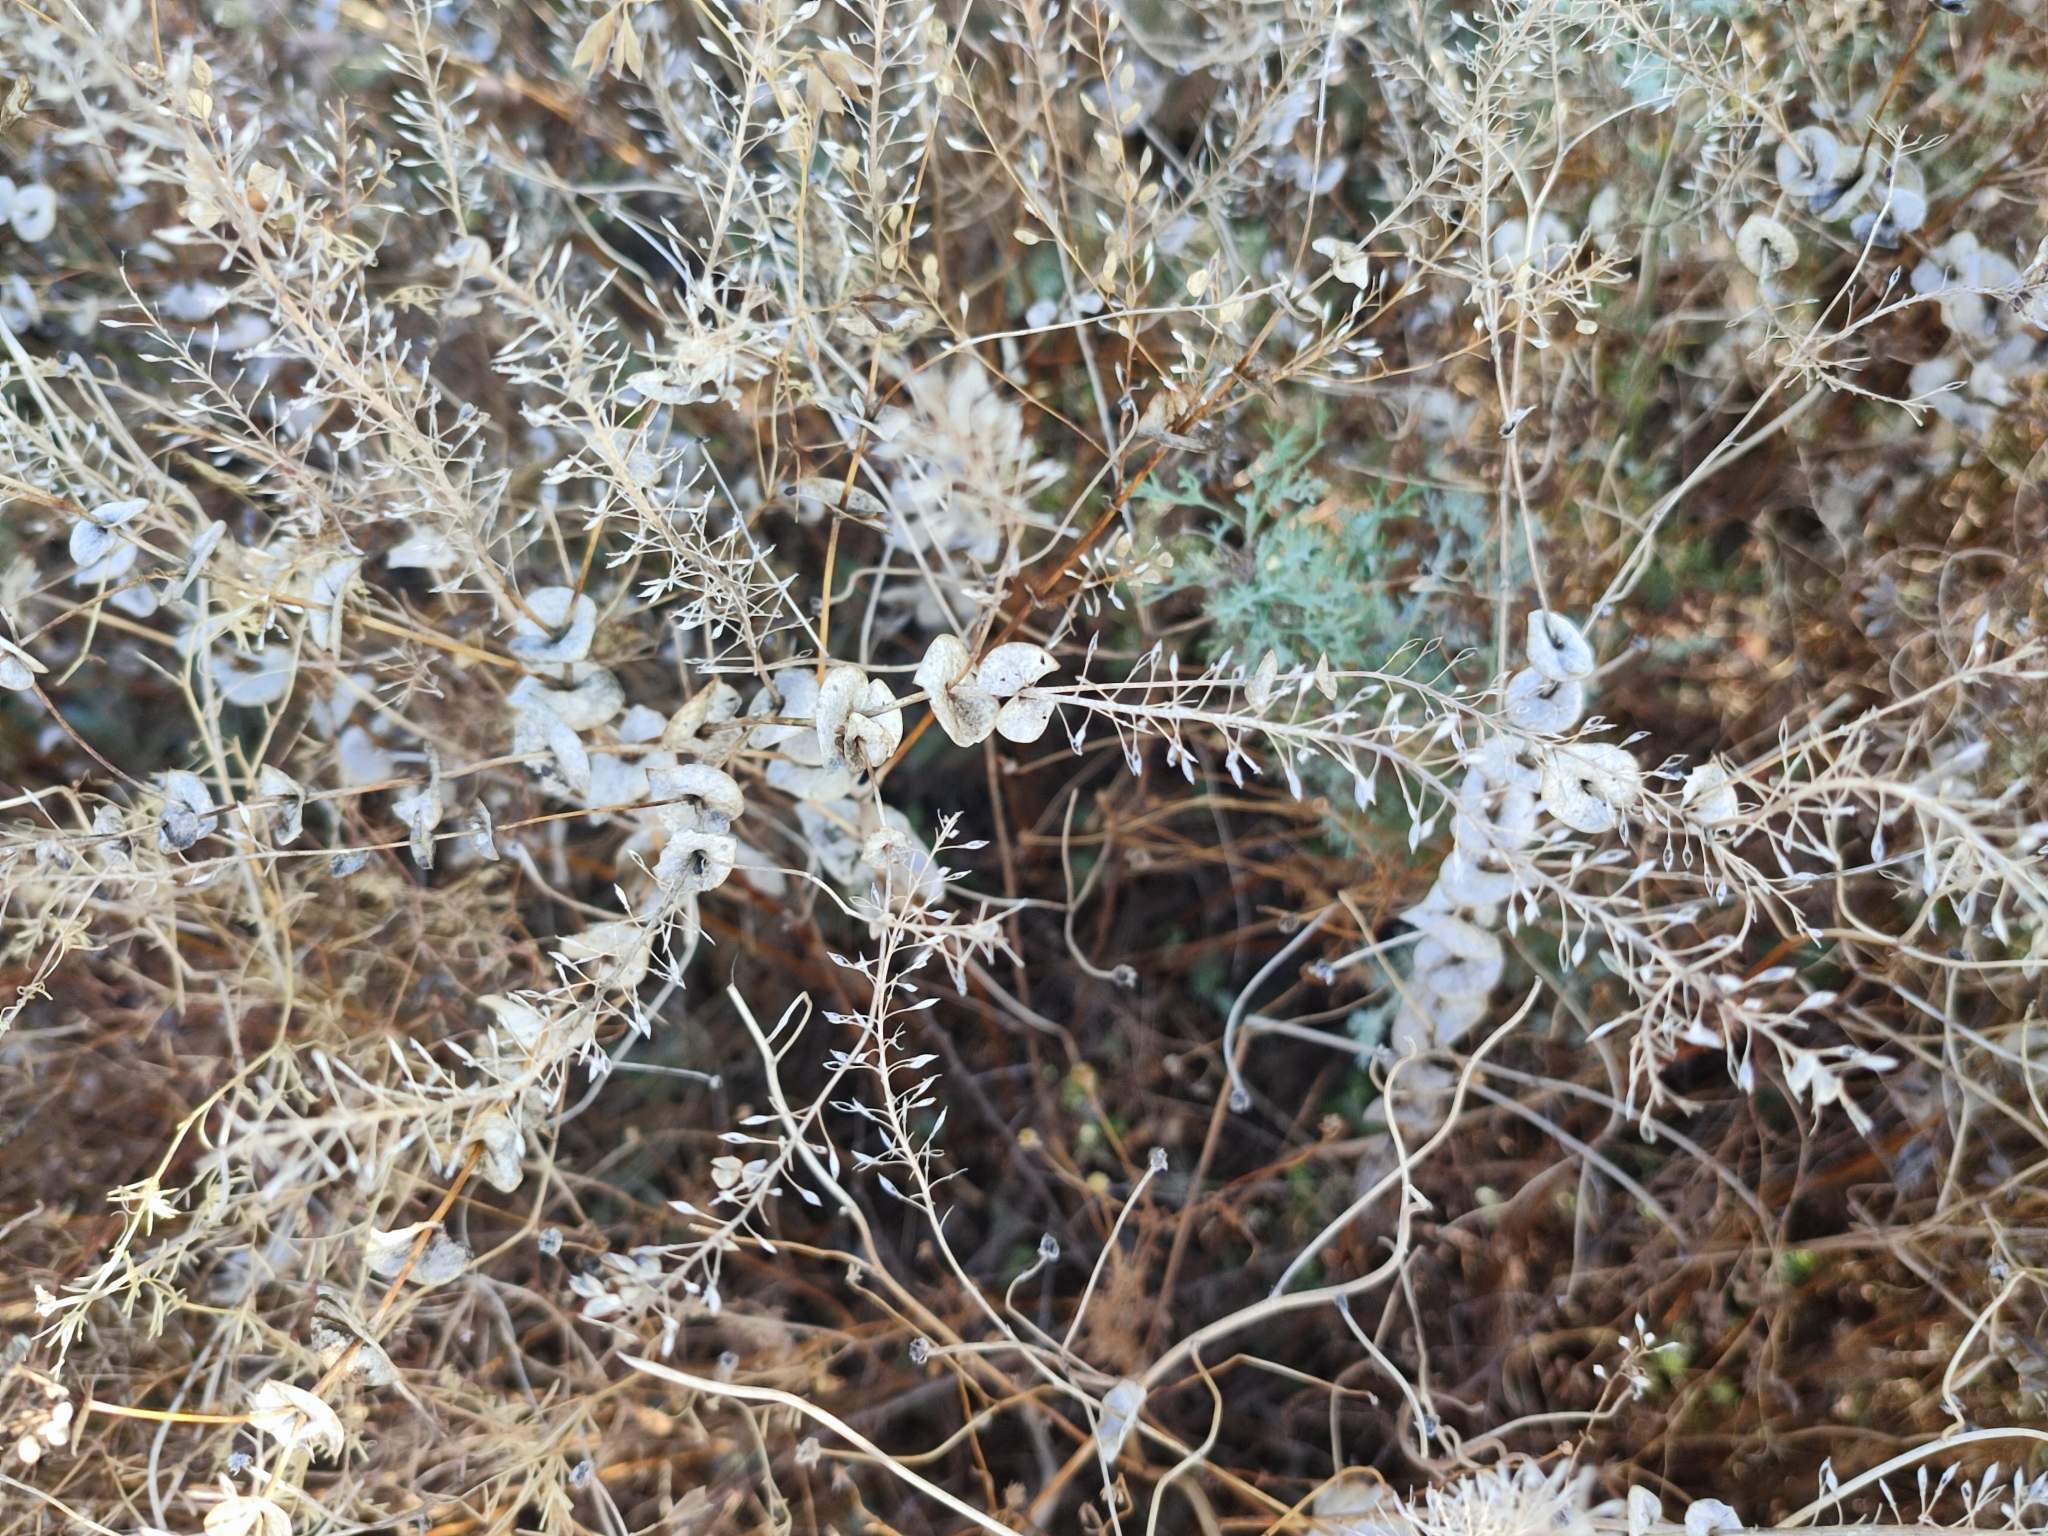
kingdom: Plantae
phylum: Tracheophyta
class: Magnoliopsida
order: Brassicales
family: Brassicaceae
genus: Lepidium
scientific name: Lepidium perfoliatum
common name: Perfoliate pepperwort
